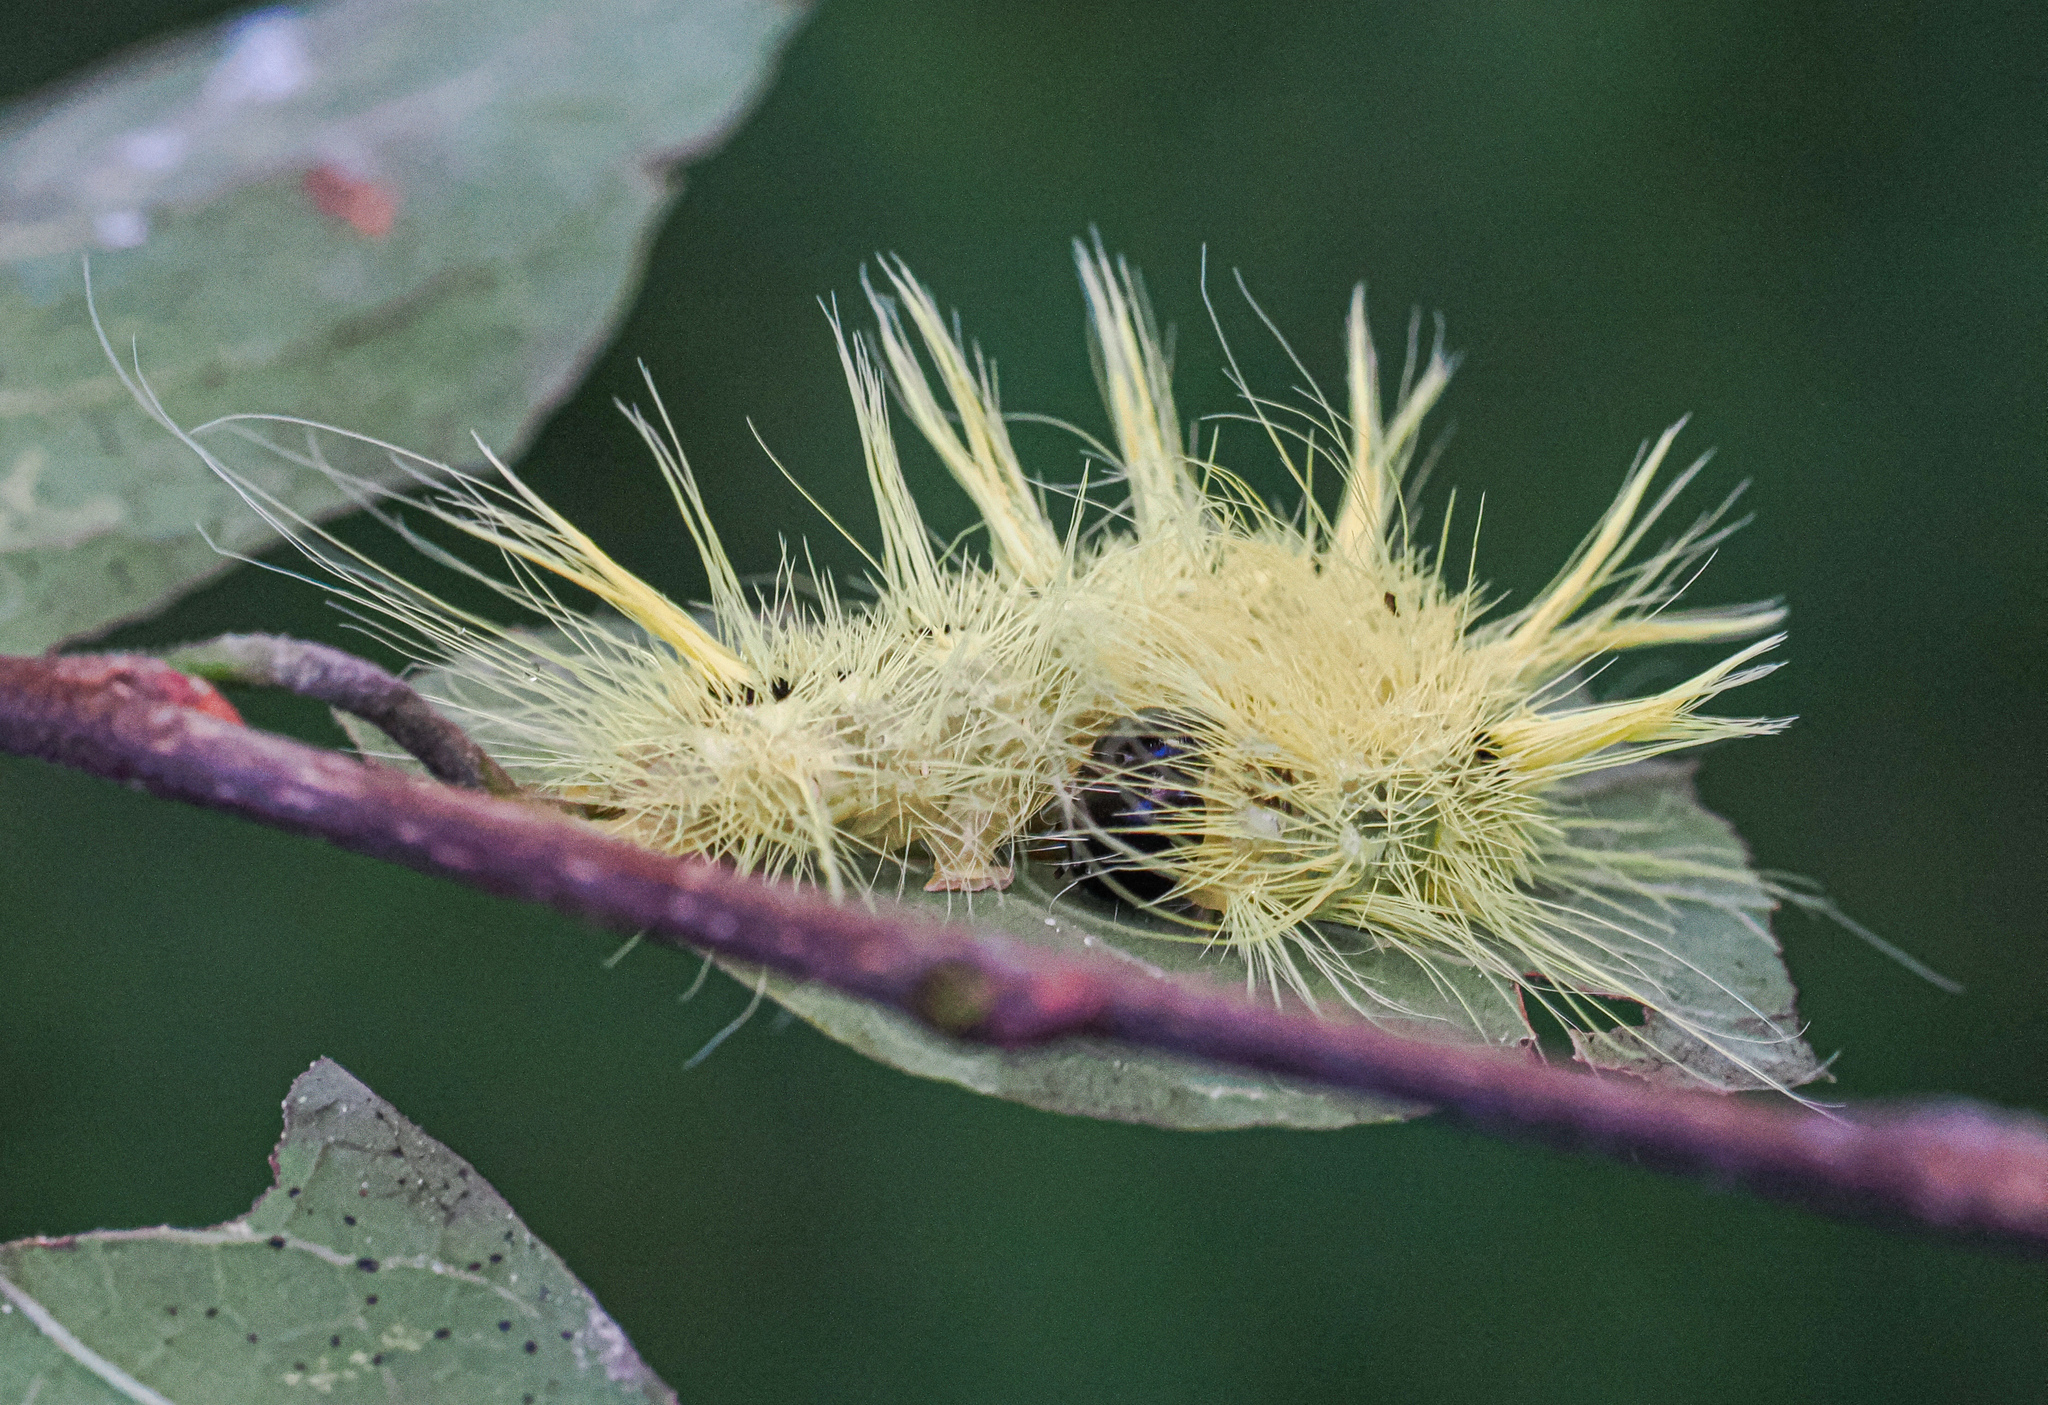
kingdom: Animalia
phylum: Arthropoda
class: Insecta
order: Lepidoptera
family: Noctuidae
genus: Acronicta
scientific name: Acronicta rubricoma
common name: Hackberry dagger
